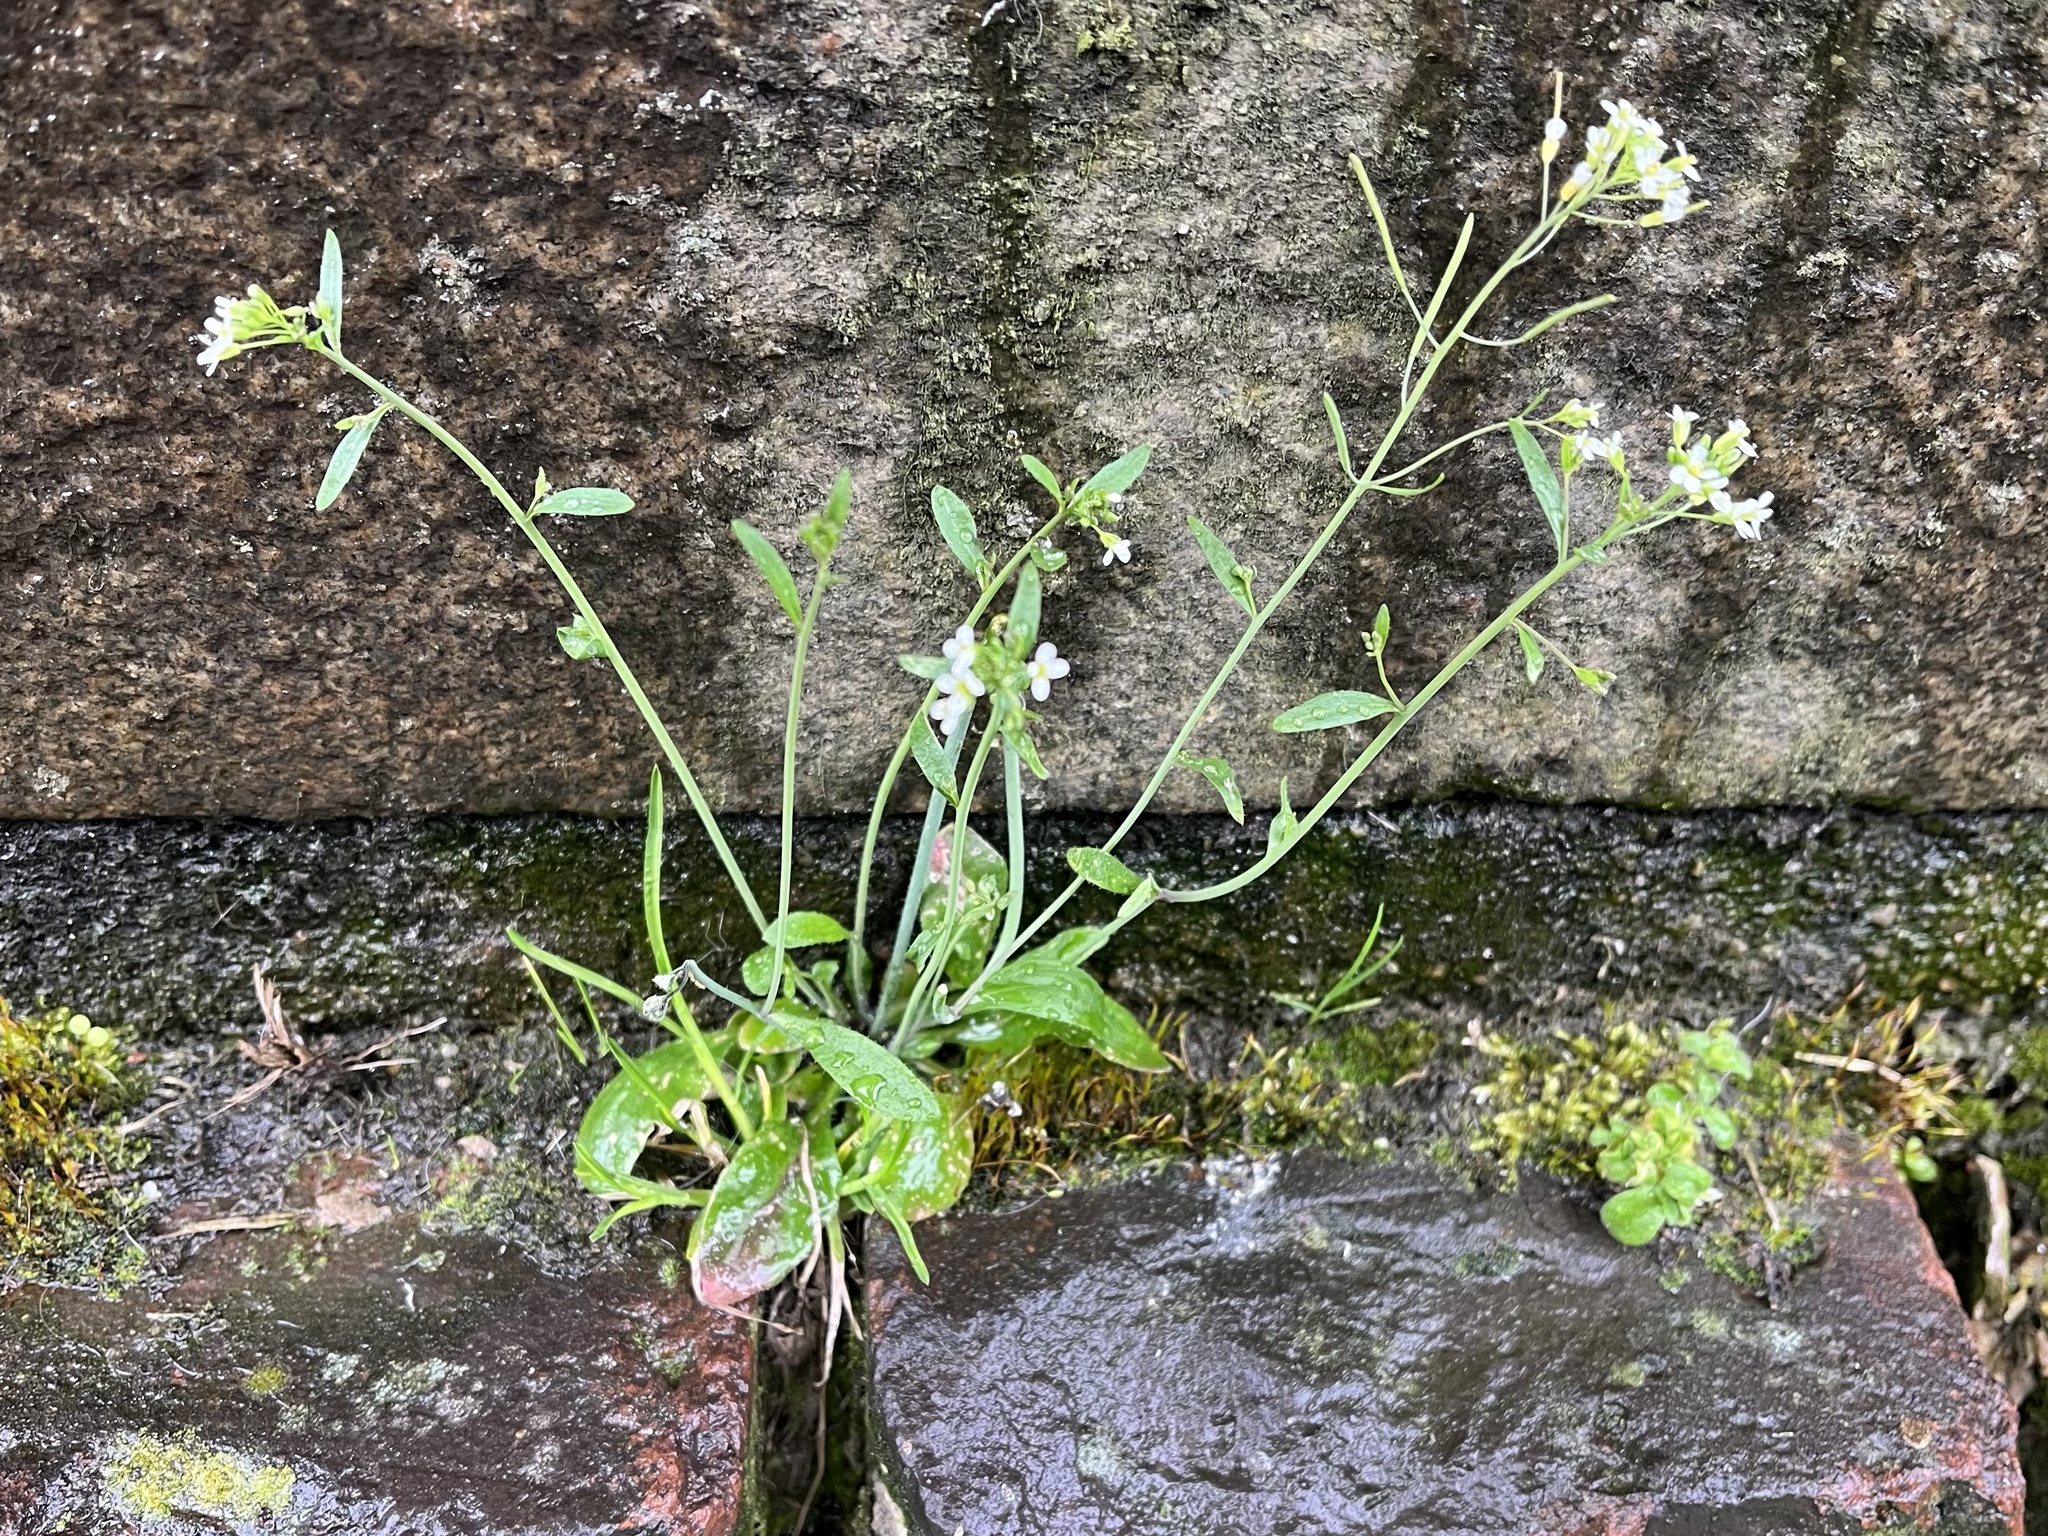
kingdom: Plantae
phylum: Tracheophyta
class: Magnoliopsida
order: Brassicales
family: Brassicaceae
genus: Arabidopsis
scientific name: Arabidopsis thaliana
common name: Thale cress
